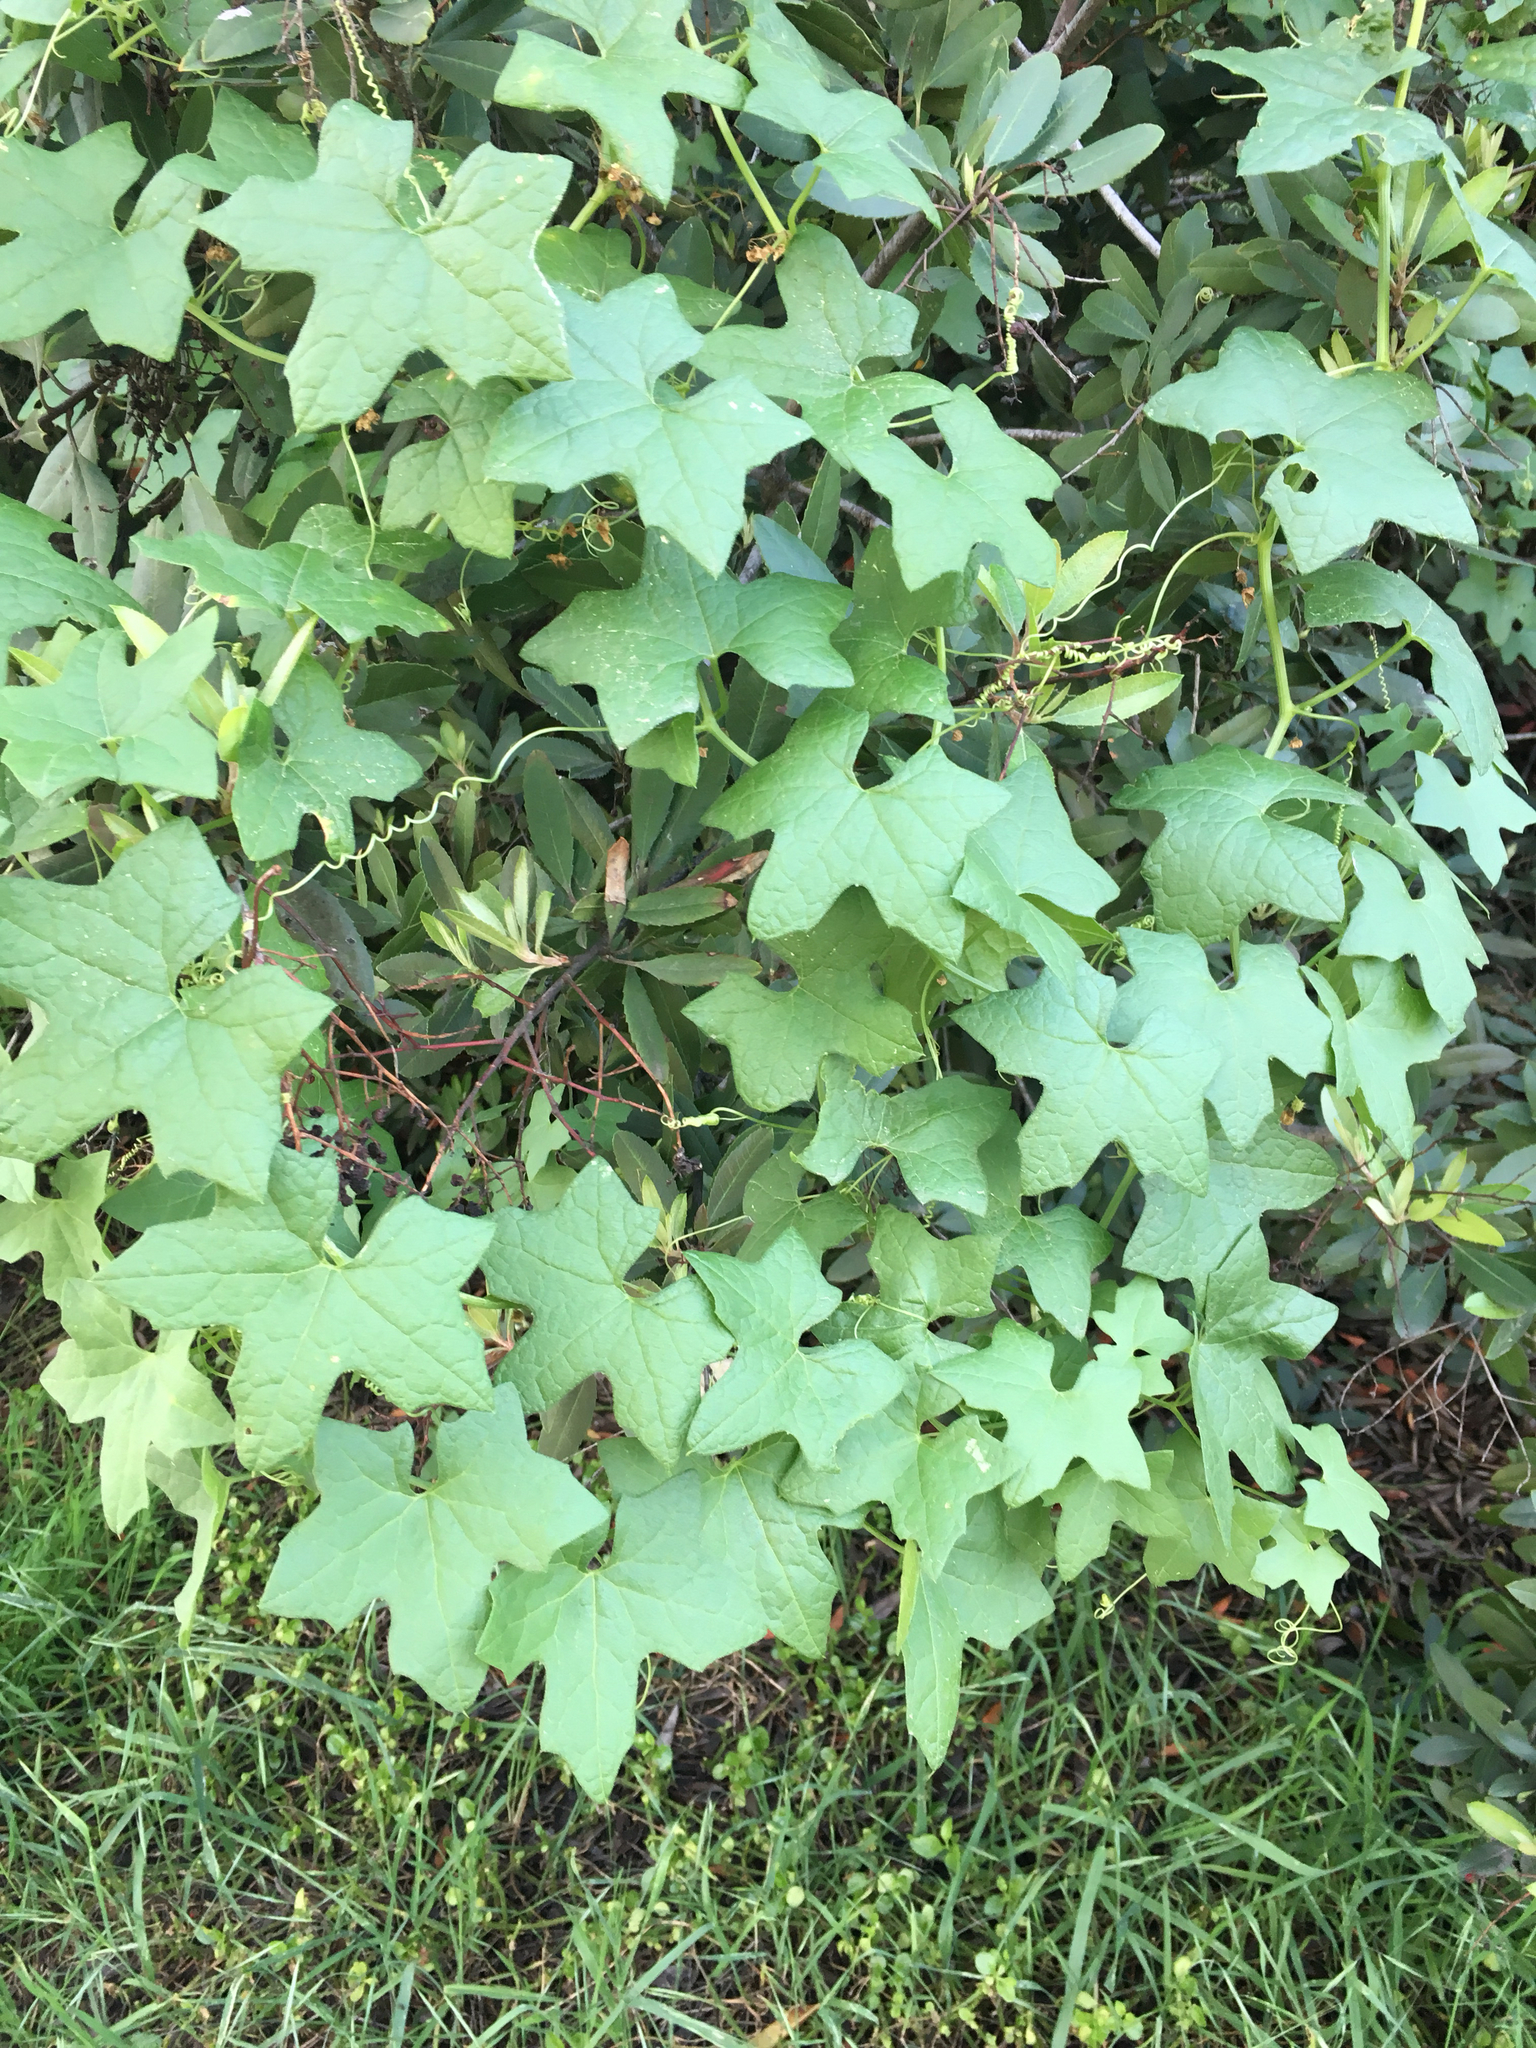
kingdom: Plantae
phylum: Tracheophyta
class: Magnoliopsida
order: Cucurbitales
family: Cucurbitaceae
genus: Marah
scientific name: Marah macrocarpa
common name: Cucamonga manroot
